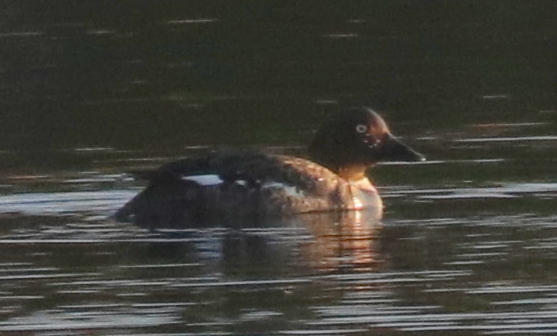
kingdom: Animalia
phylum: Chordata
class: Aves
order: Anseriformes
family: Anatidae
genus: Bucephala
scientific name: Bucephala clangula
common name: Common goldeneye
